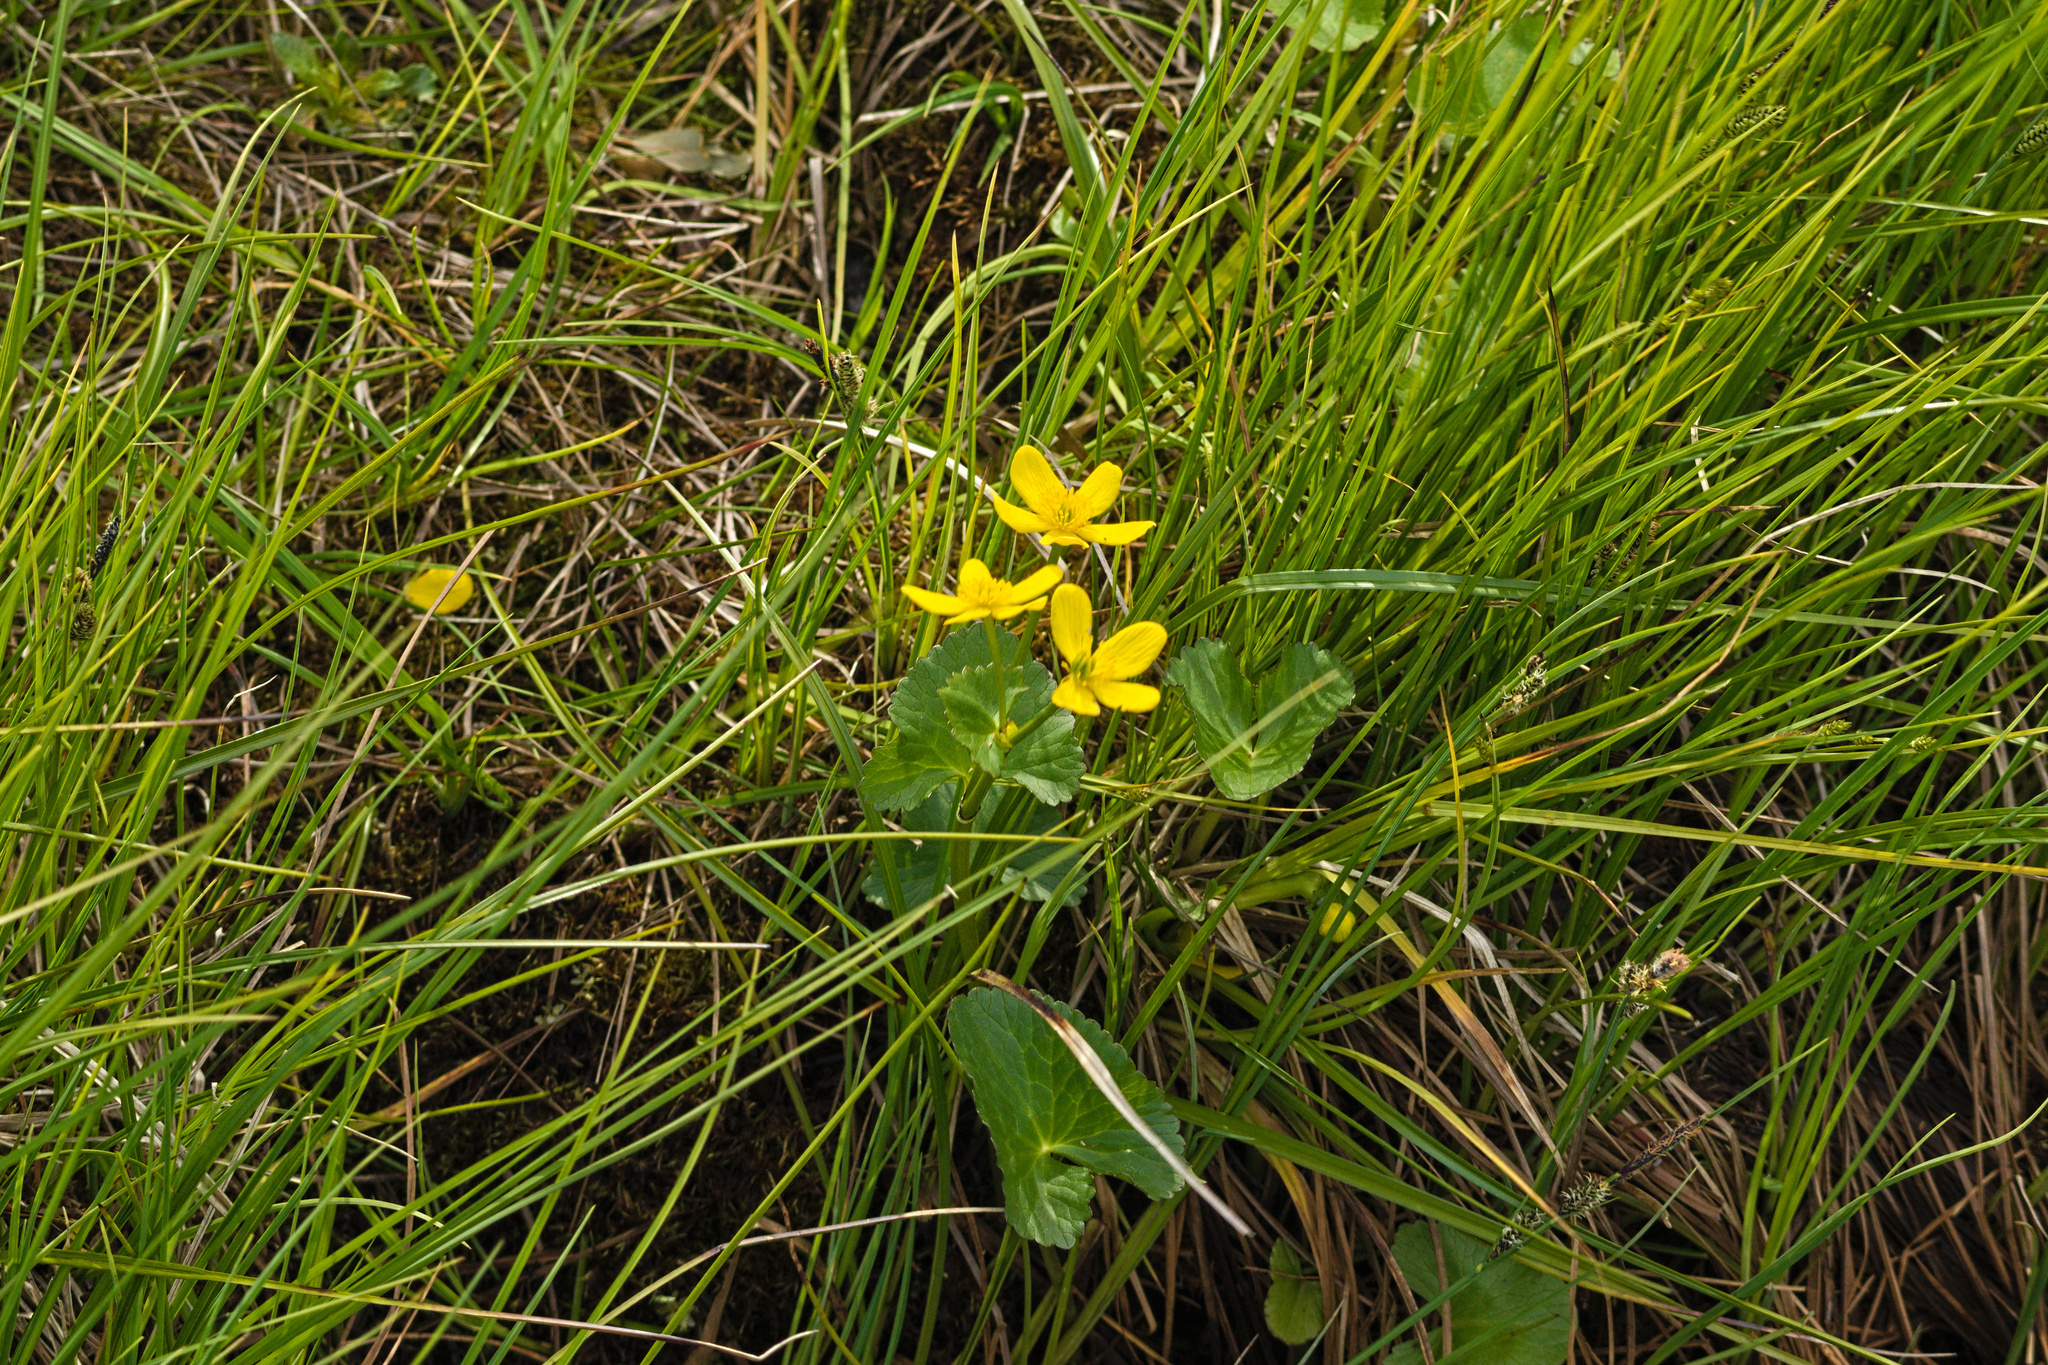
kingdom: Plantae
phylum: Tracheophyta
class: Magnoliopsida
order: Ranunculales
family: Ranunculaceae
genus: Caltha
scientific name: Caltha palustris
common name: Marsh marigold
